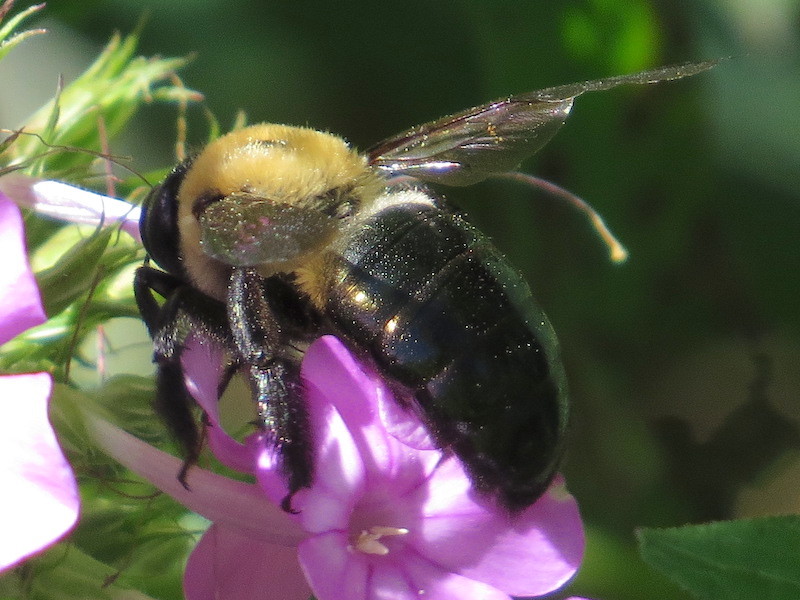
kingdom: Animalia
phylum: Arthropoda
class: Insecta
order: Hymenoptera
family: Apidae
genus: Xylocopa
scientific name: Xylocopa virginica
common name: Carpenter bee
